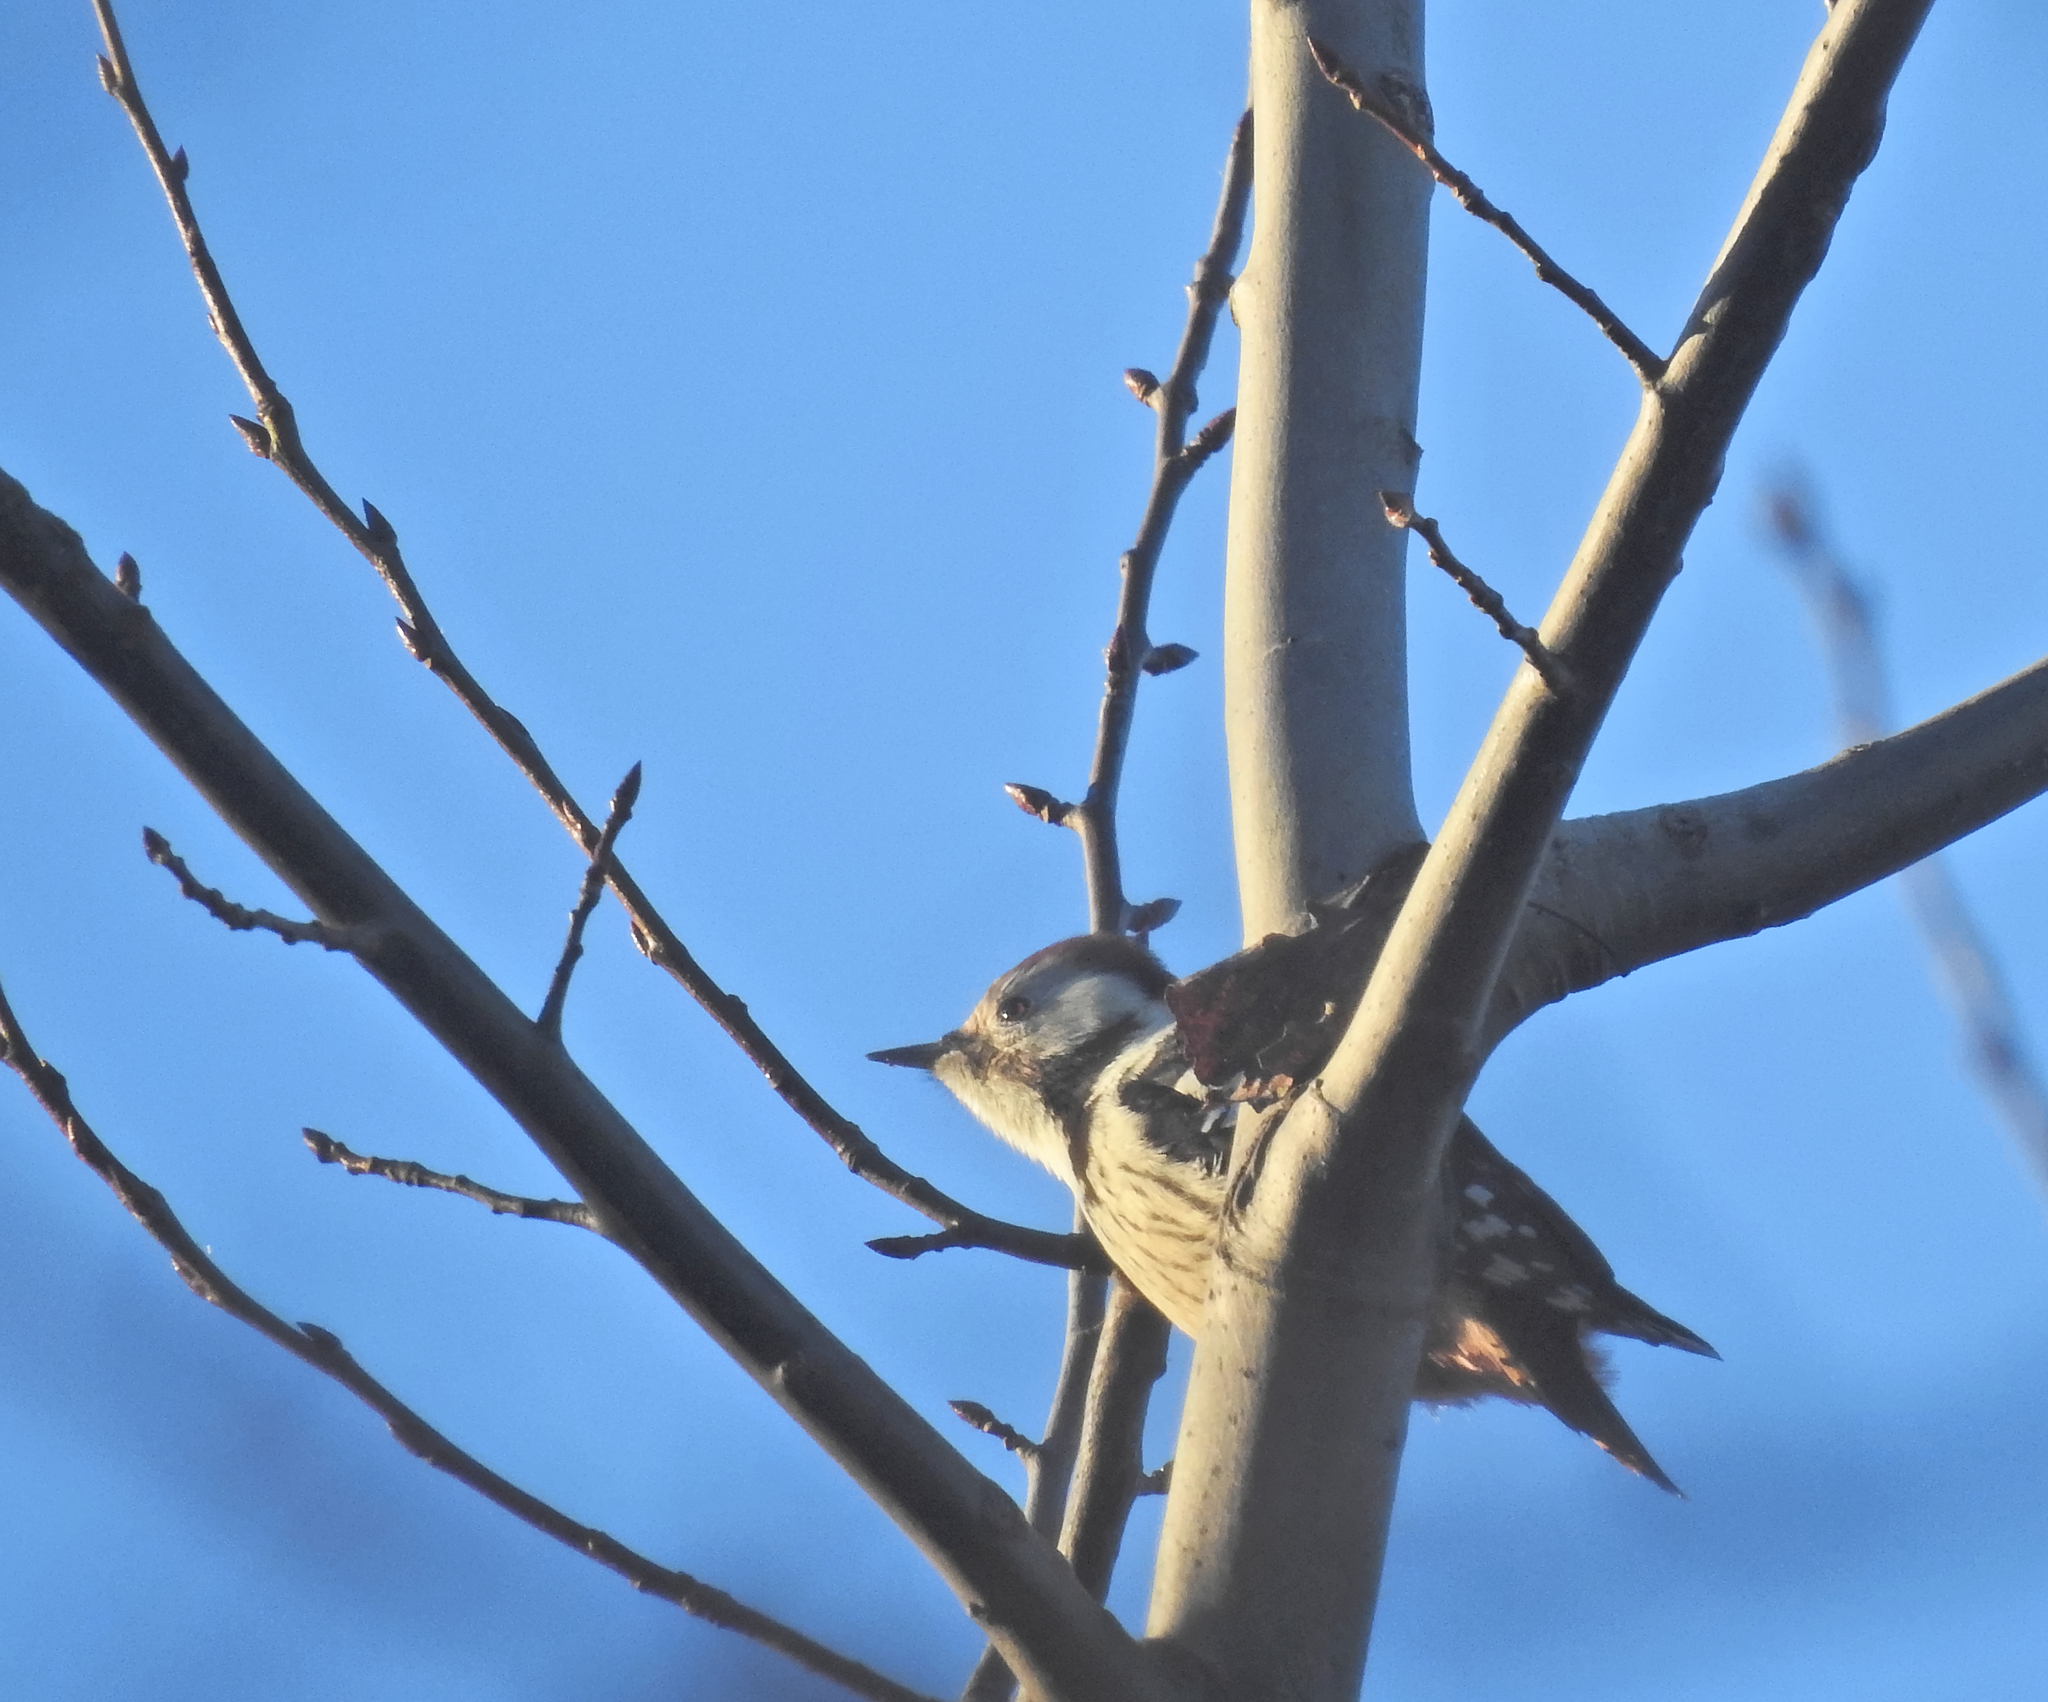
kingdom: Animalia
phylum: Chordata
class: Aves
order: Piciformes
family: Picidae
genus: Dendrocoptes
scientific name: Dendrocoptes medius
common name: Middle spotted woodpecker
